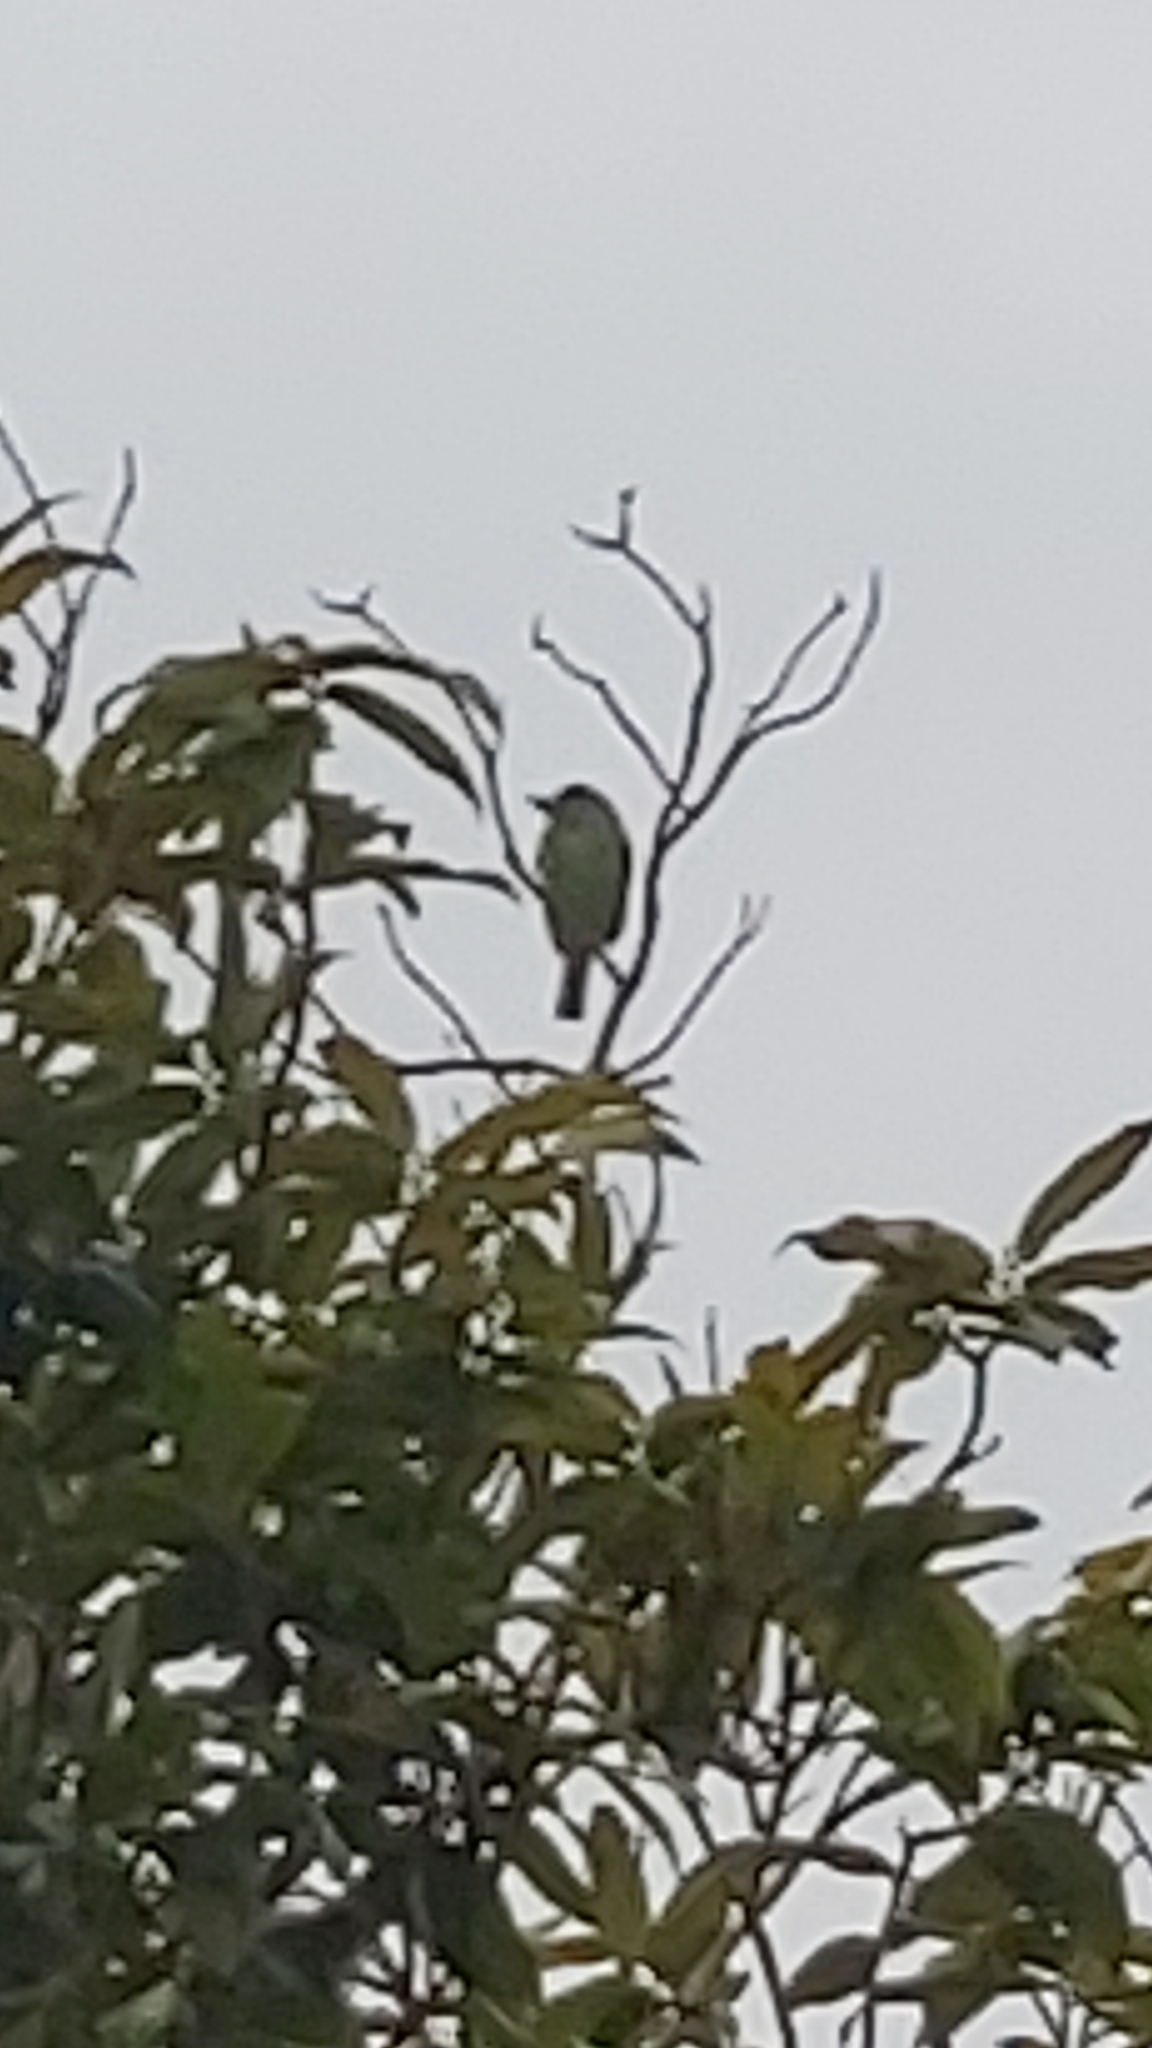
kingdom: Animalia
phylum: Chordata
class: Aves
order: Piciformes
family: Megalaimidae
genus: Psilopogon
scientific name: Psilopogon nuchalis
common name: Taiwan barbet
